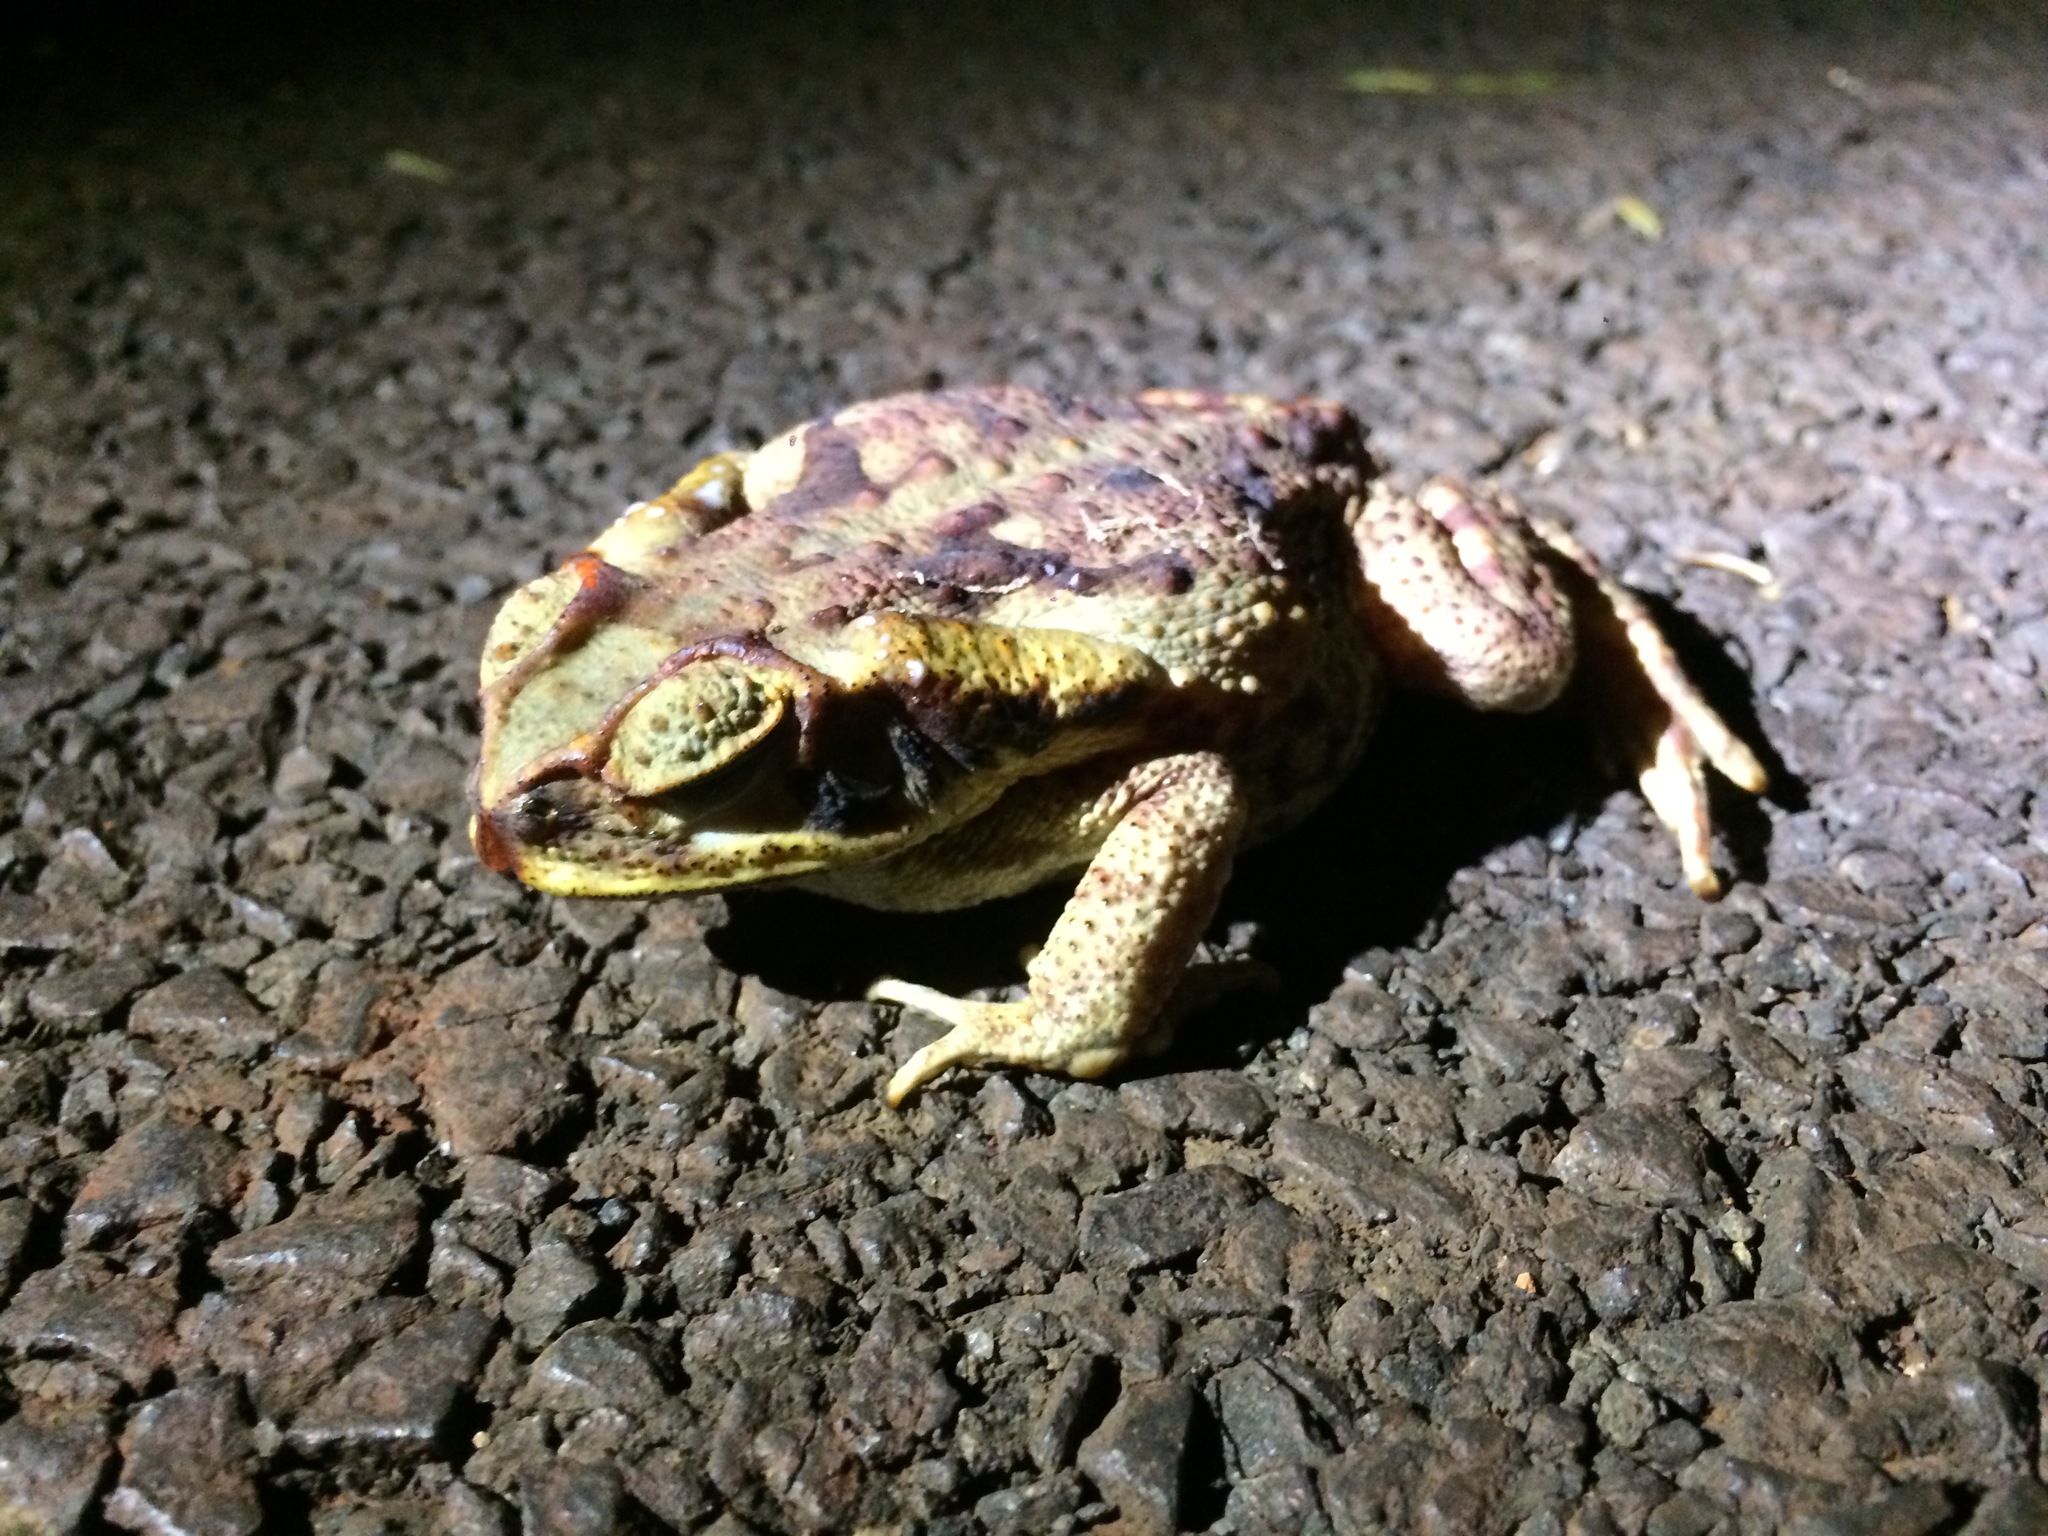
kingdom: Animalia
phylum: Chordata
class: Amphibia
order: Anura
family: Bufonidae
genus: Rhinella
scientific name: Rhinella diptycha
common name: Cope's toad
